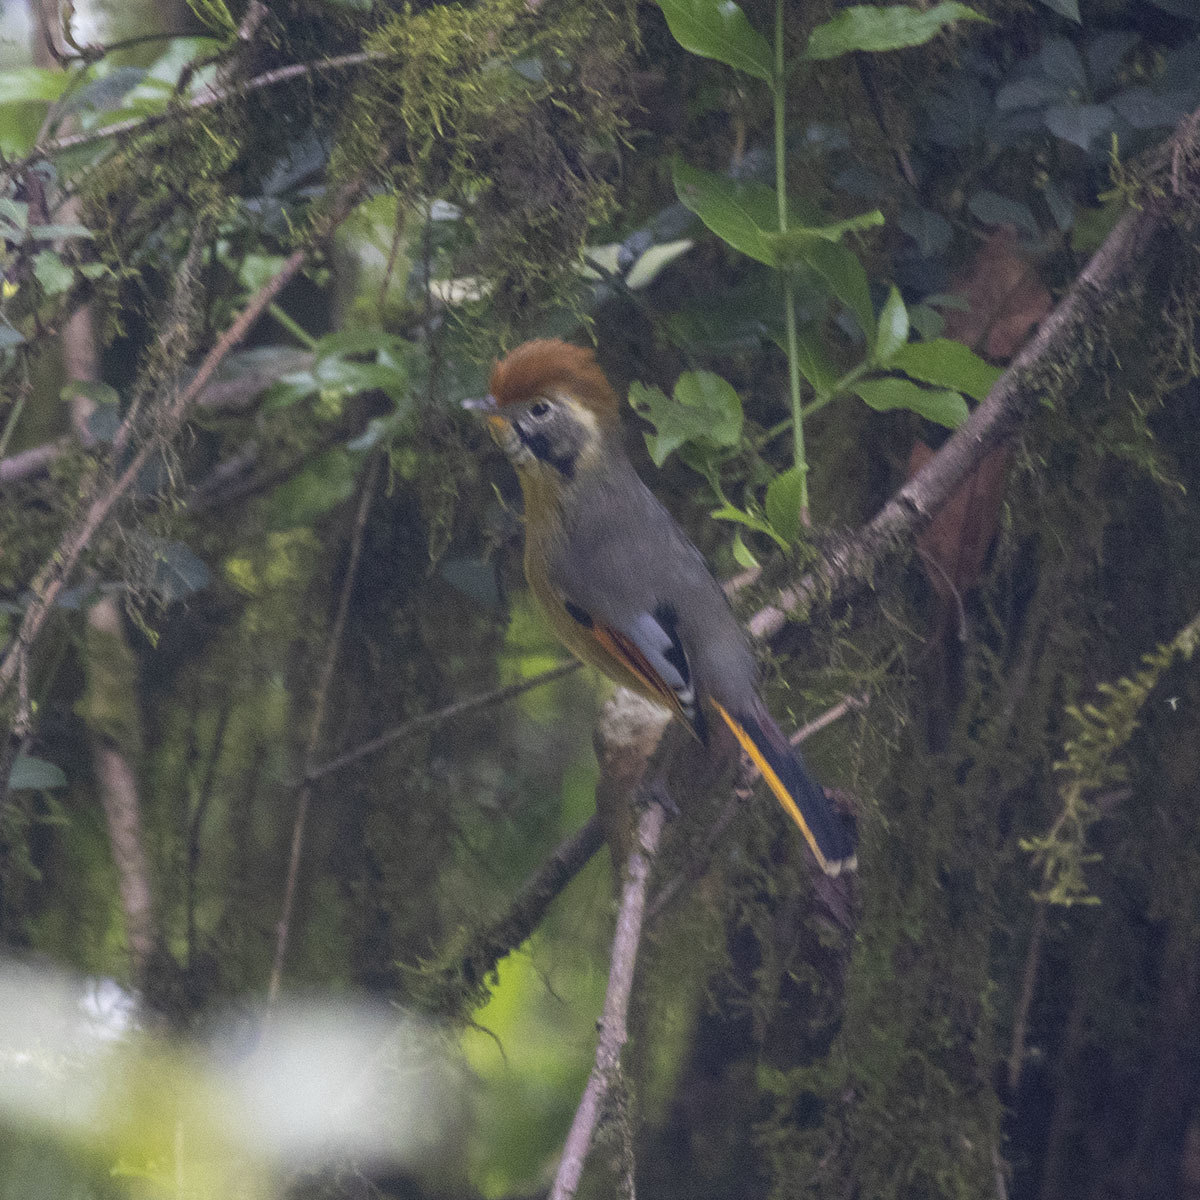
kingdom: Animalia
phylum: Chordata
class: Aves
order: Passeriformes
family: Leiothrichidae
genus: Minla
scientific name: Minla strigula
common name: Chestnut-tailed minla
